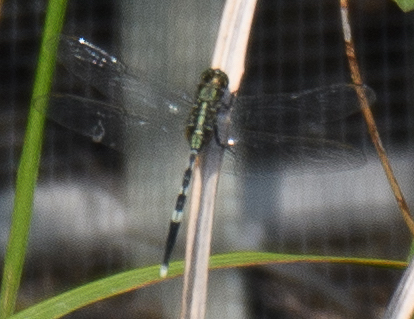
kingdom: Animalia
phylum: Arthropoda
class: Insecta
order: Odonata
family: Libellulidae
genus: Orthetrum
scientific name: Orthetrum sabina
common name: Slender skimmer
